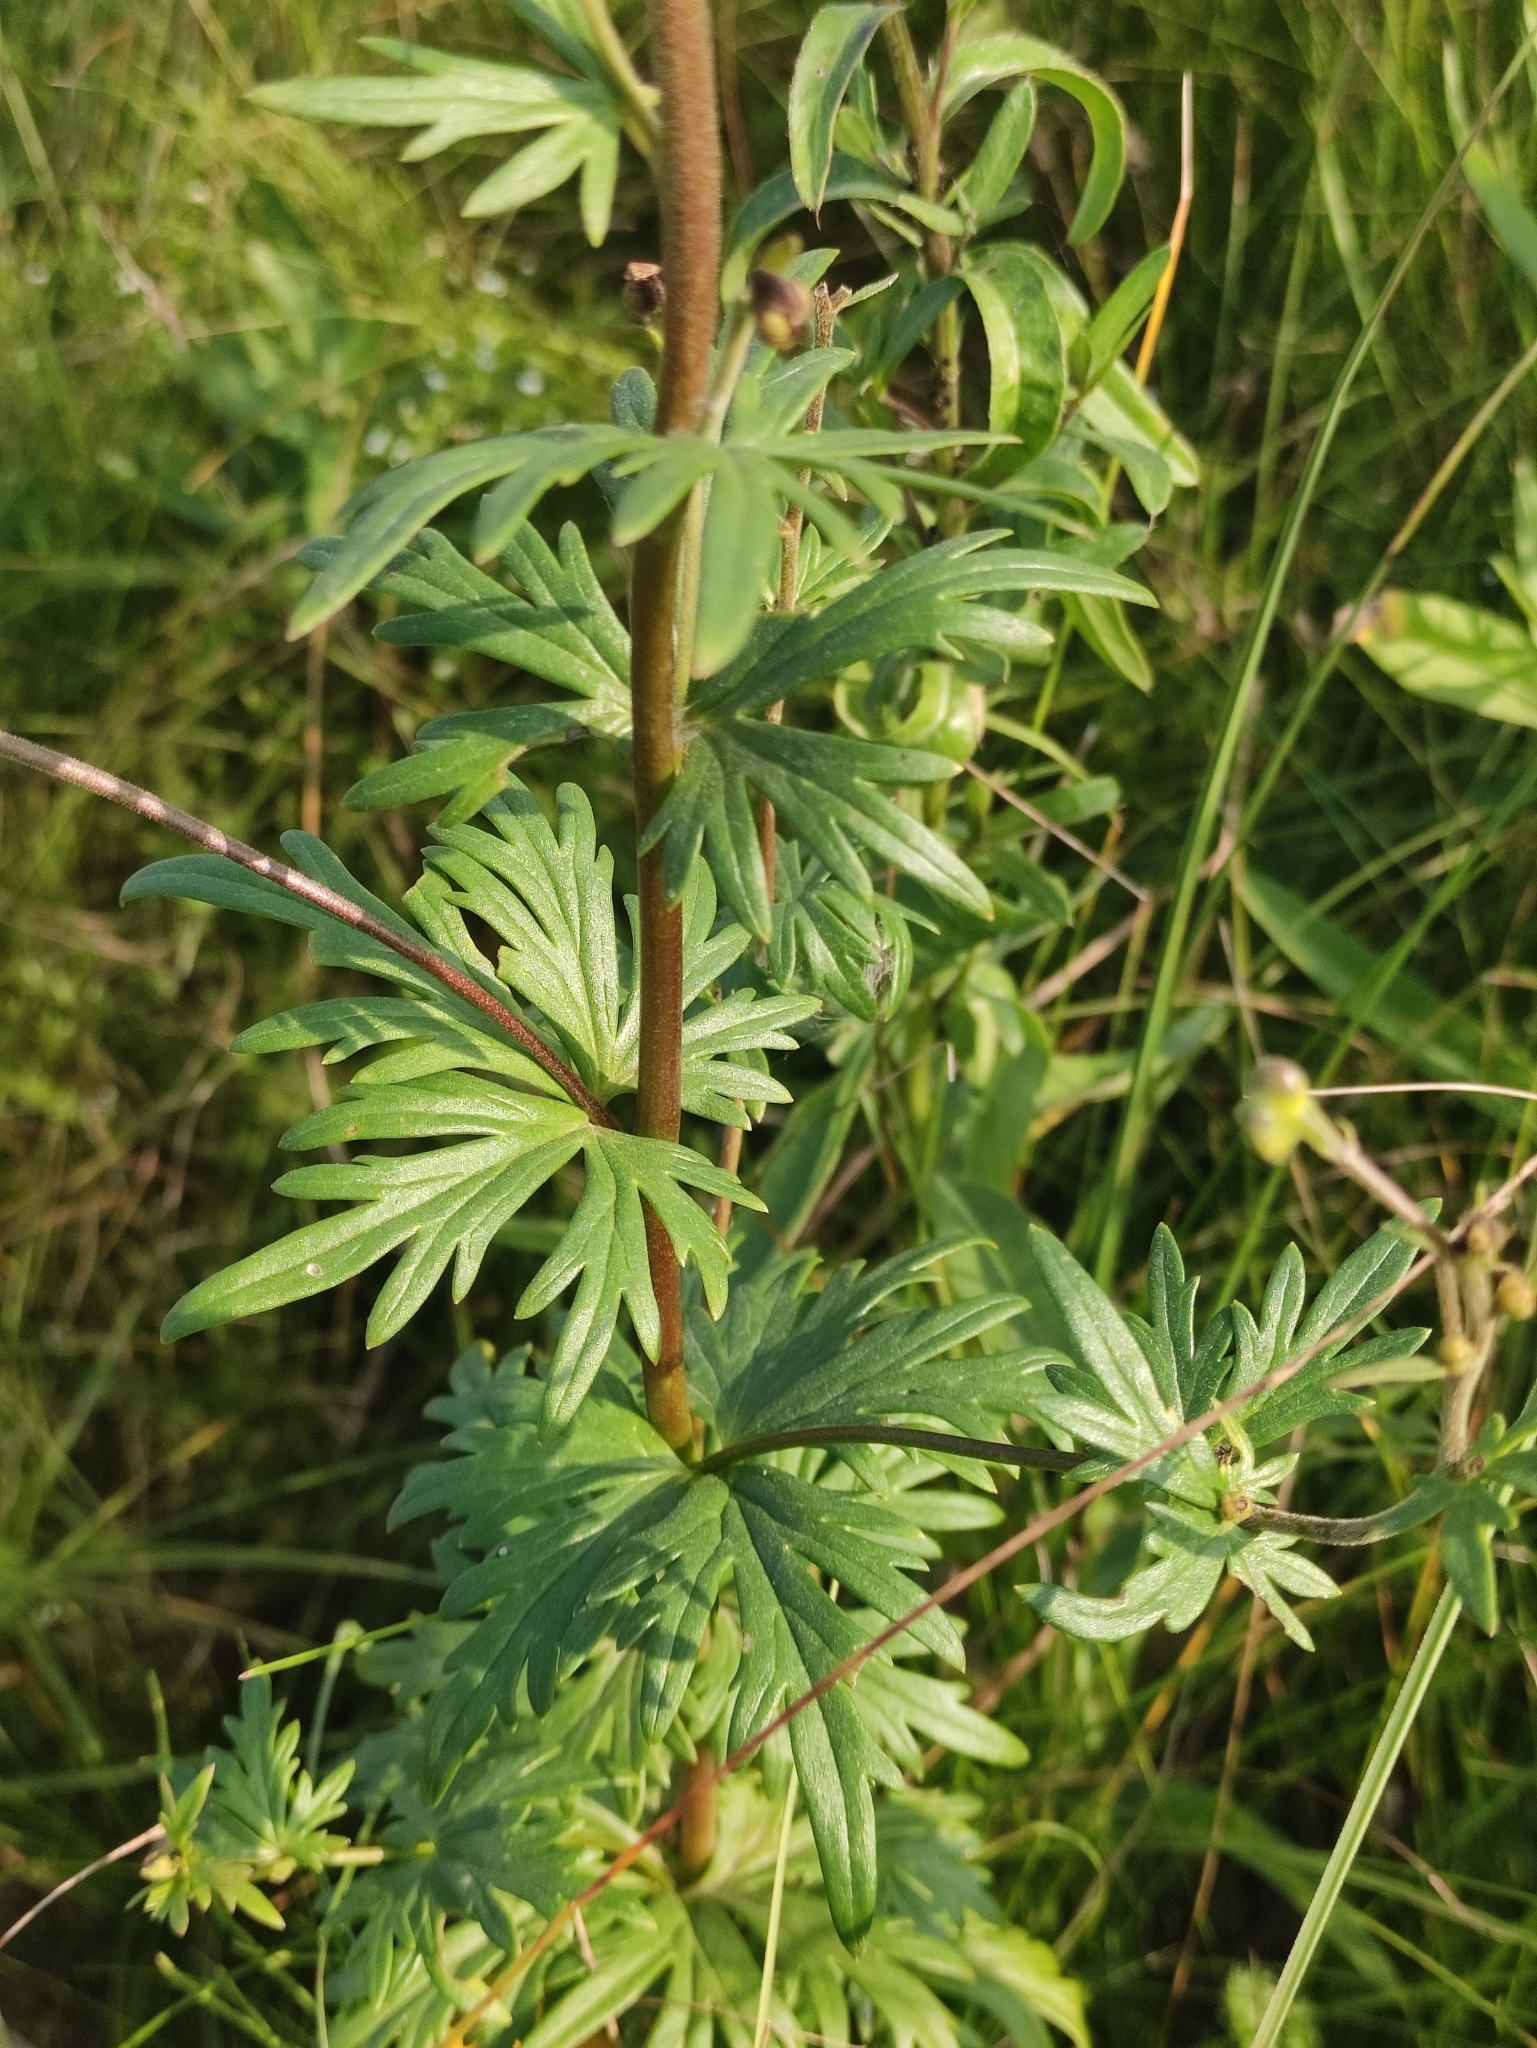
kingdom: Plantae
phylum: Tracheophyta
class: Magnoliopsida
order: Ranunculales
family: Ranunculaceae
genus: Aconitum
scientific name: Aconitum baicalense
